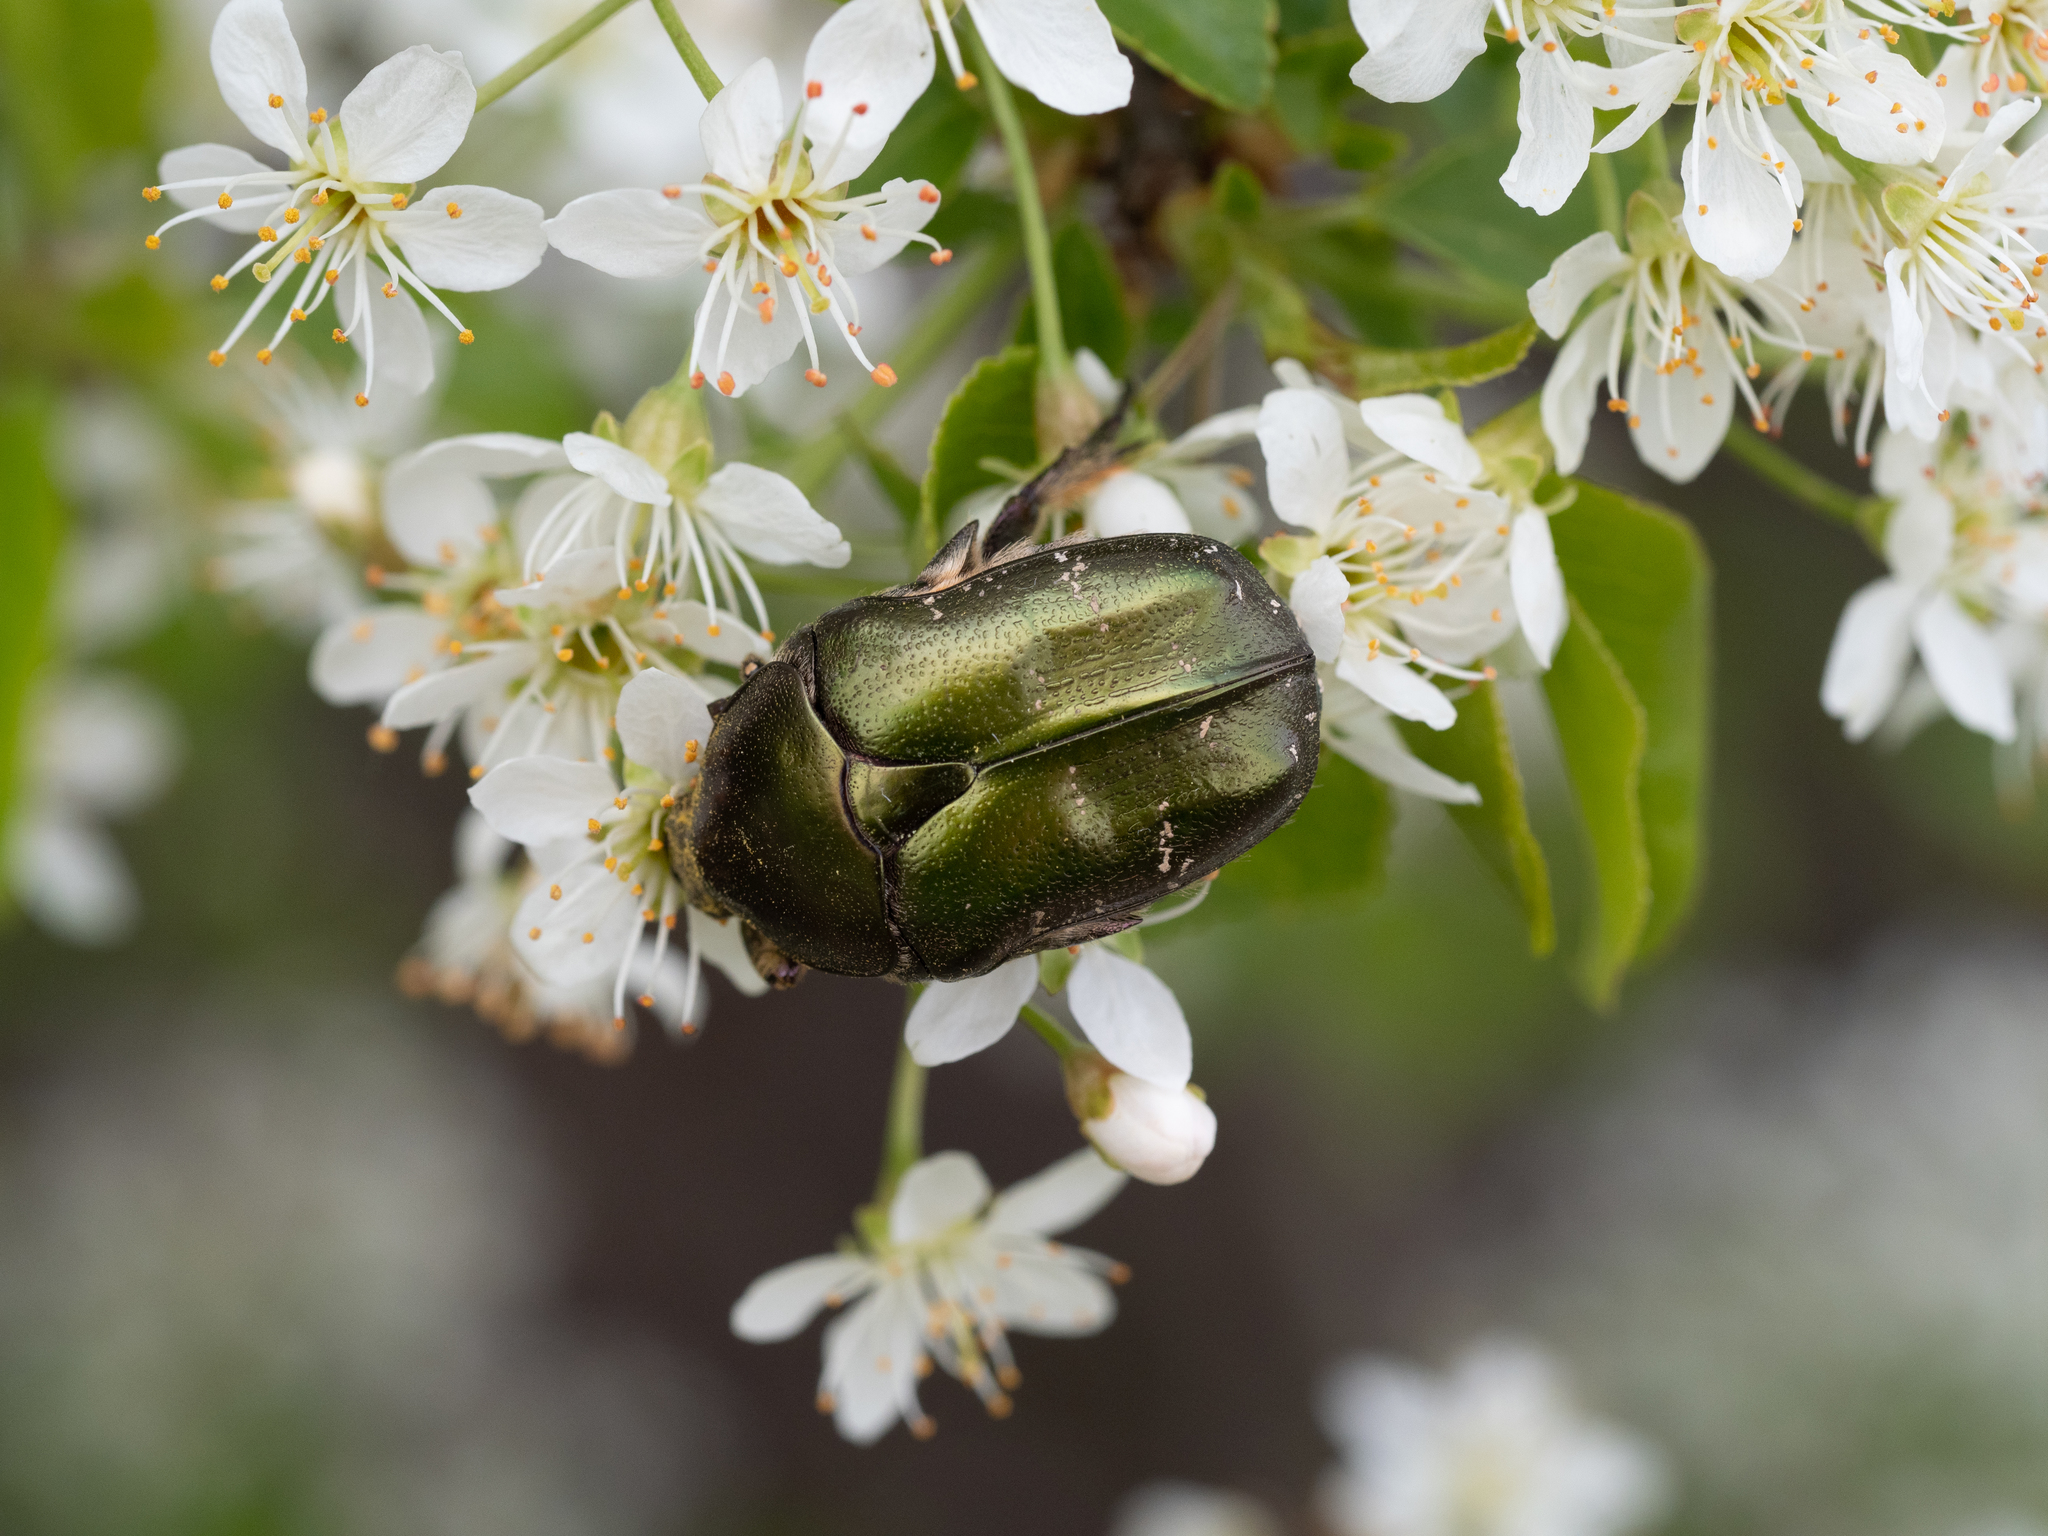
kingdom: Animalia
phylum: Arthropoda
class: Insecta
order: Coleoptera
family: Scarabaeidae
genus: Protaetia
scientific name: Protaetia cuprea
